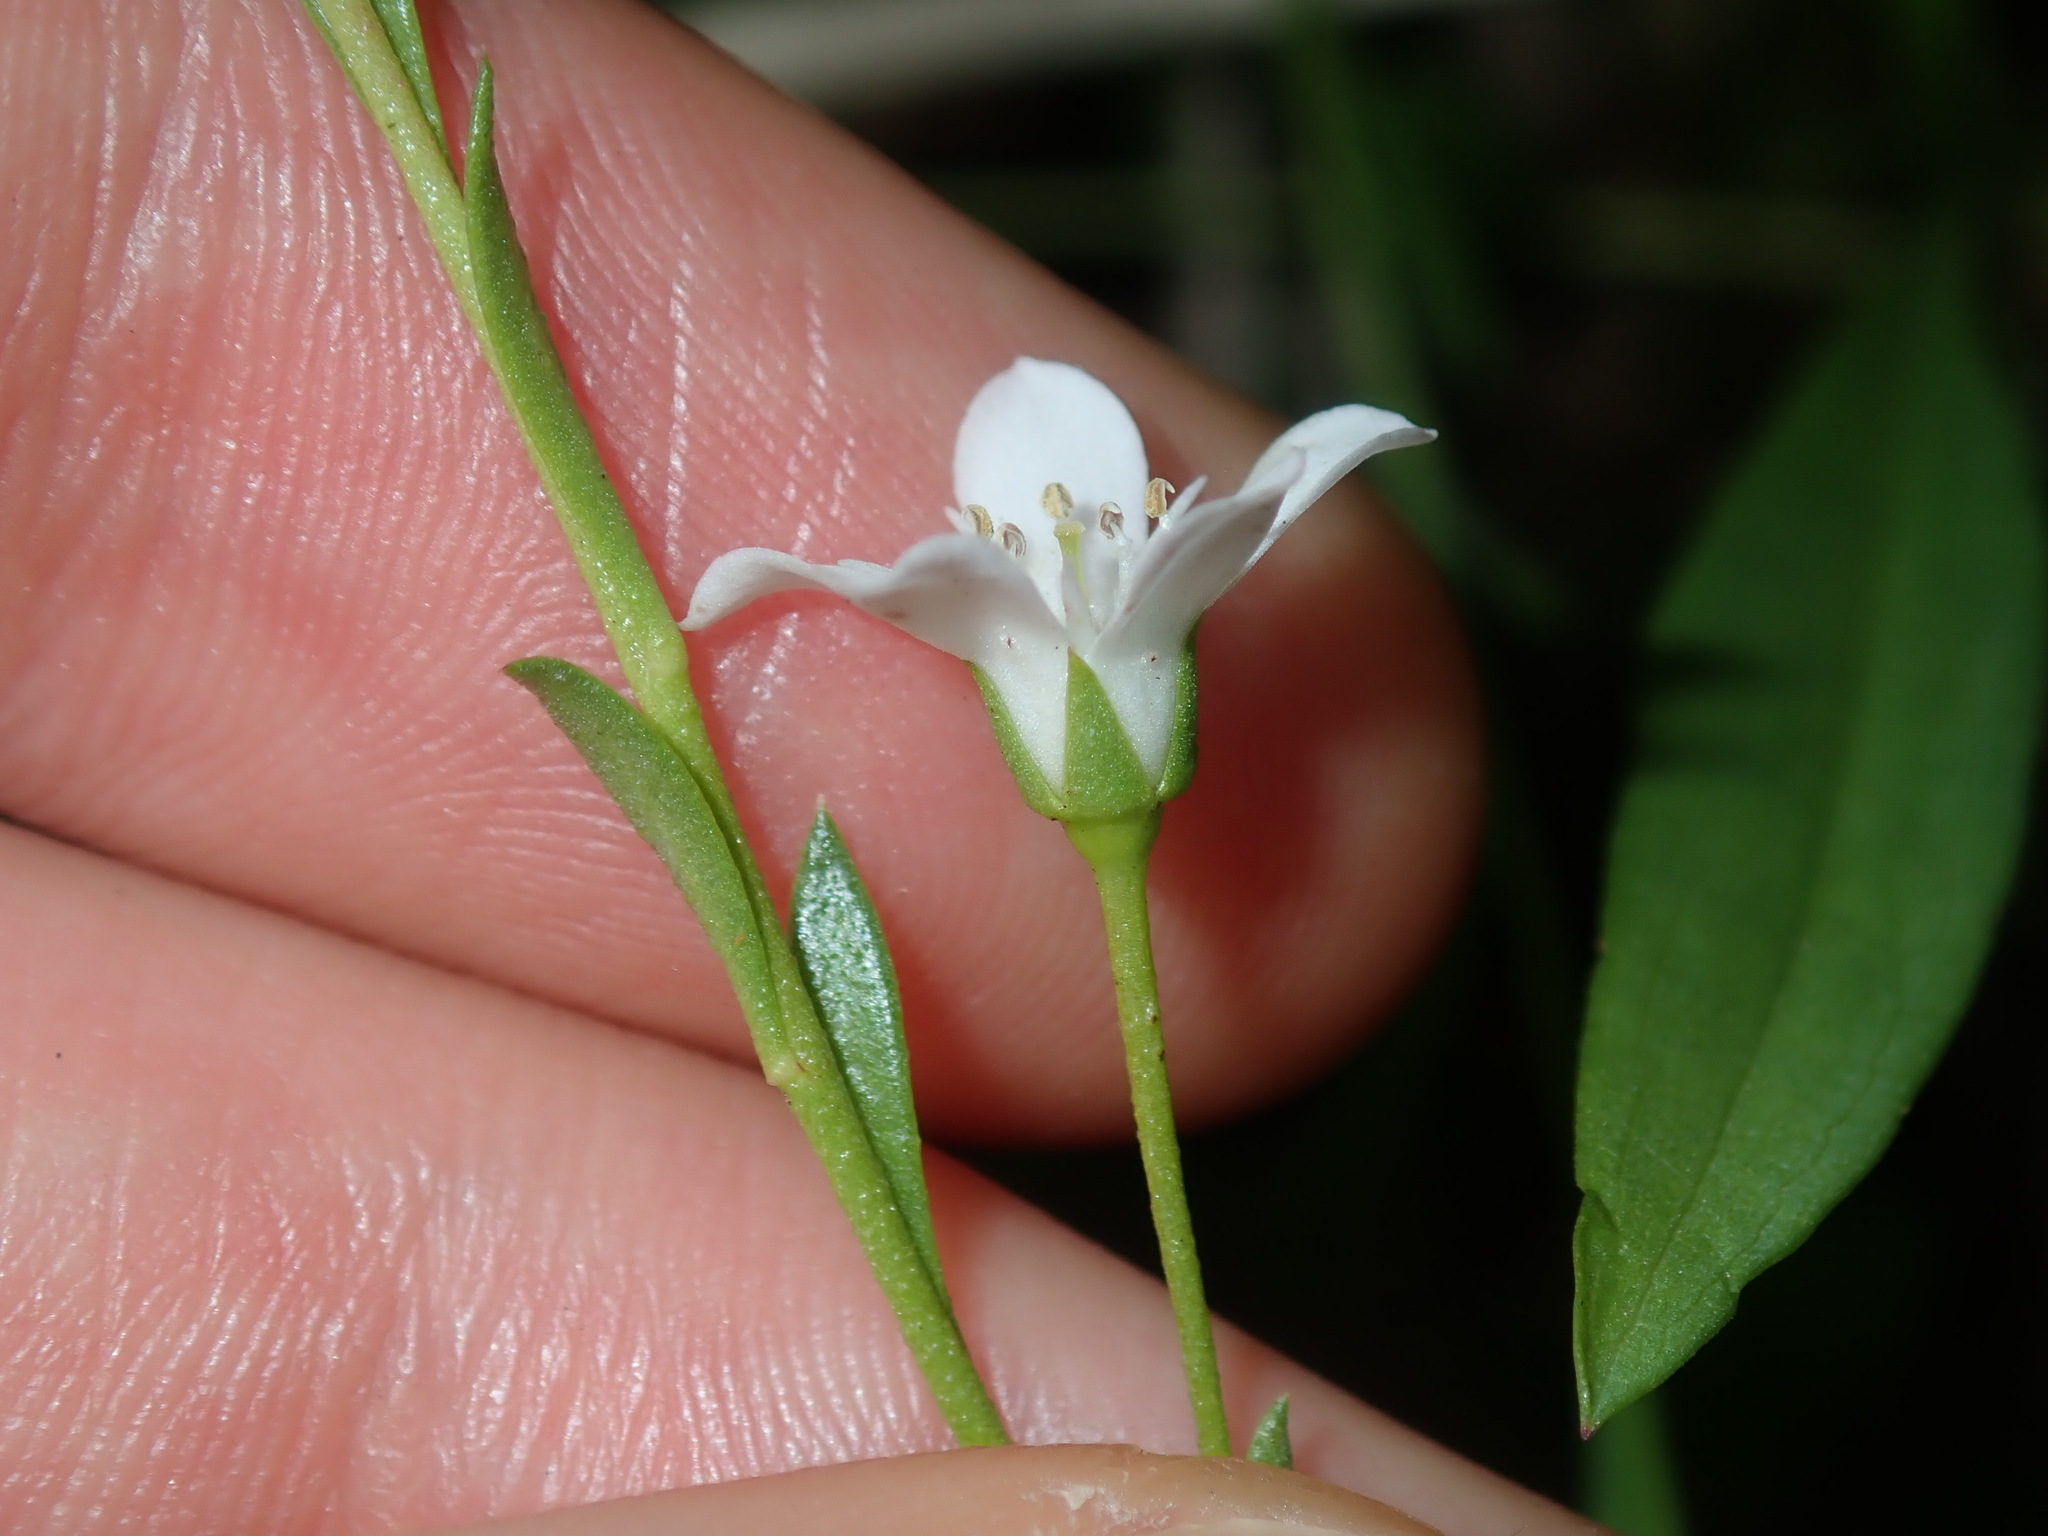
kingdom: Plantae
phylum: Tracheophyta
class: Magnoliopsida
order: Ericales
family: Primulaceae
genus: Samolus
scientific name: Samolus repens
